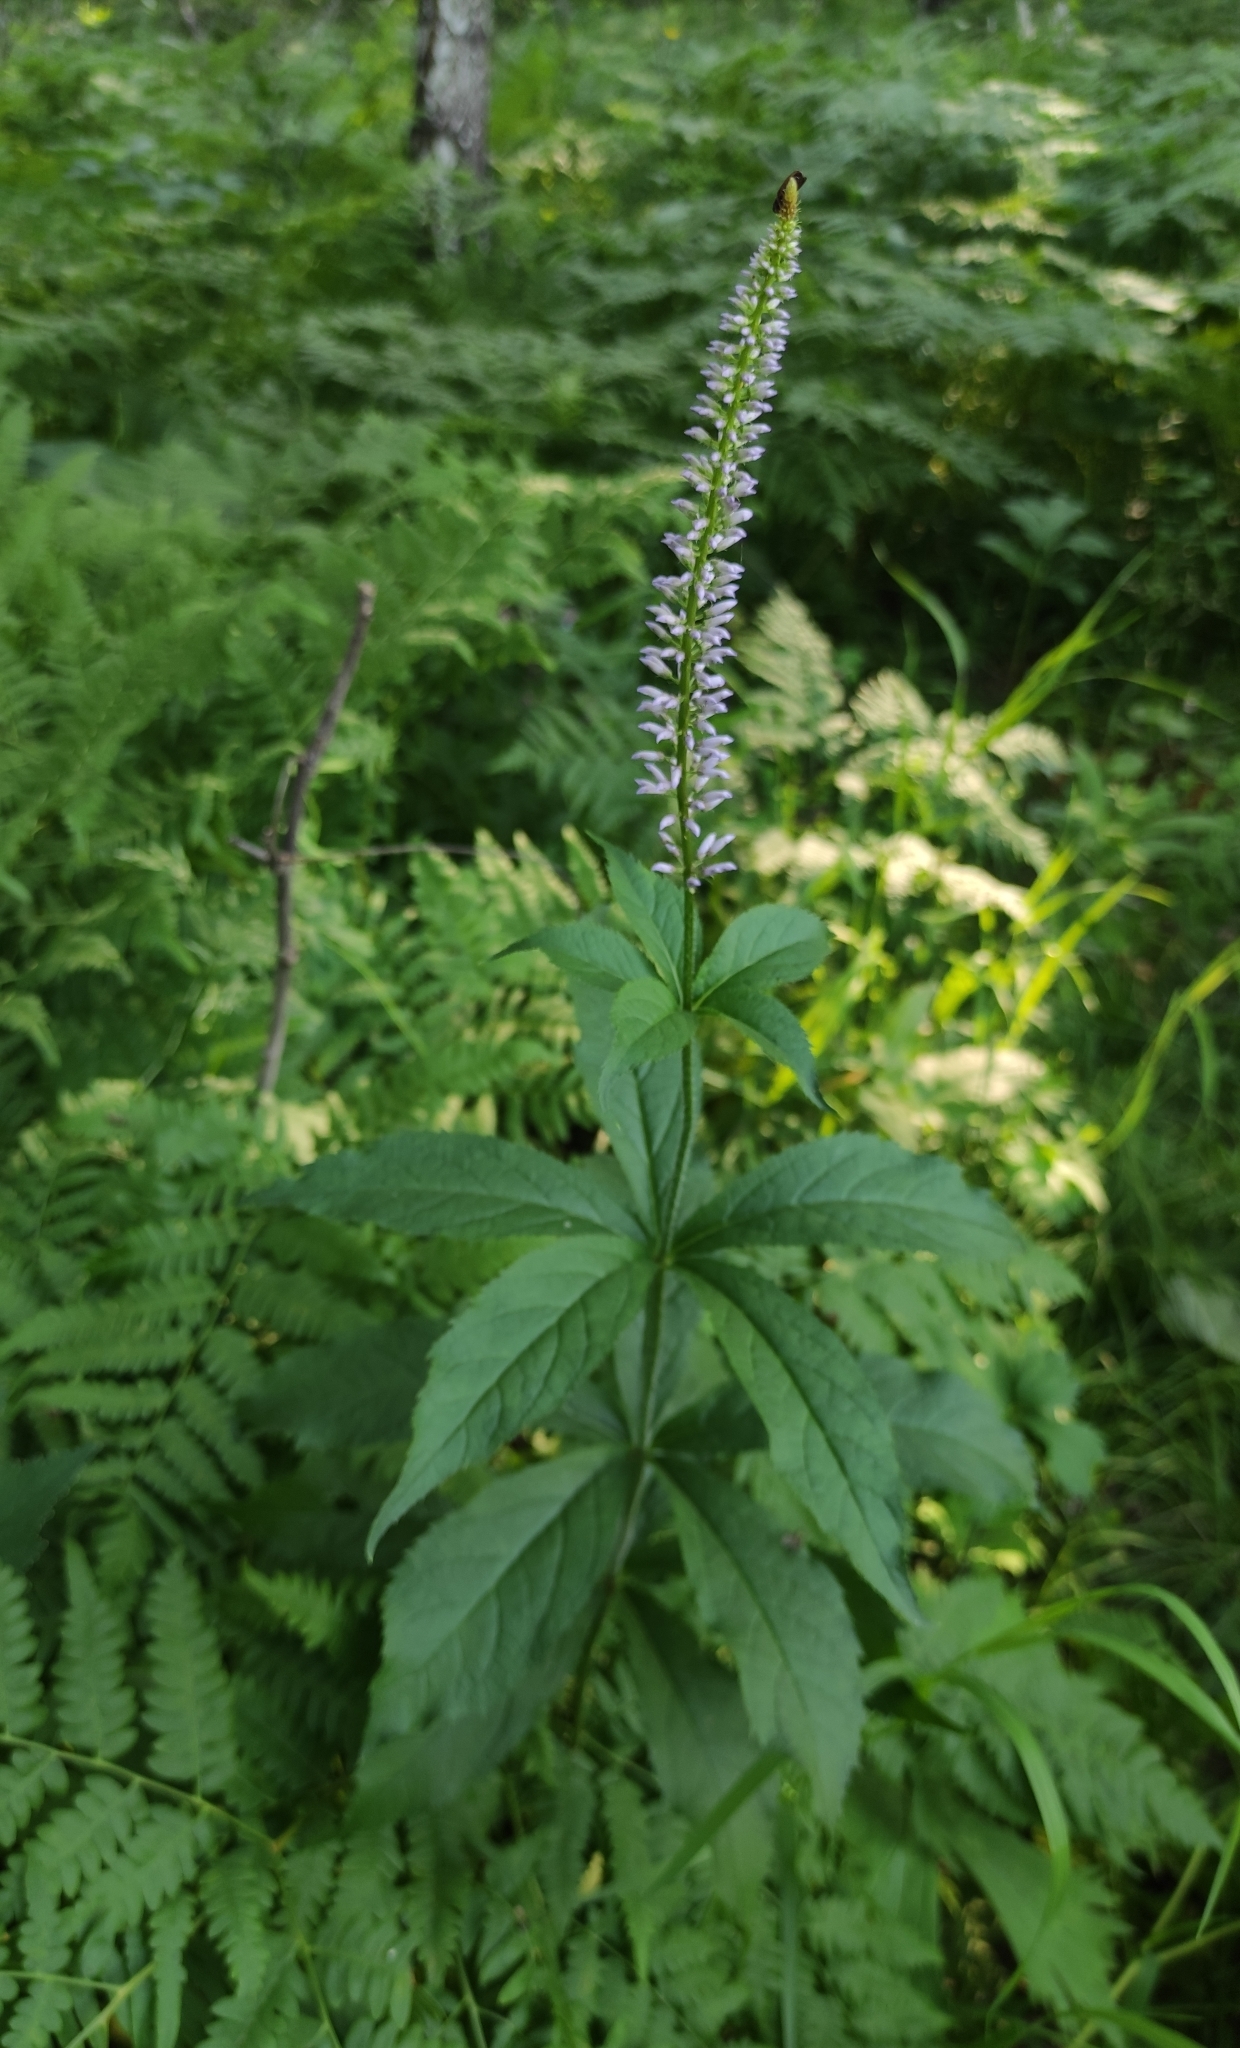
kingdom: Plantae
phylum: Tracheophyta
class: Magnoliopsida
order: Lamiales
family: Plantaginaceae
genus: Veronicastrum
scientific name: Veronicastrum sibiricum
